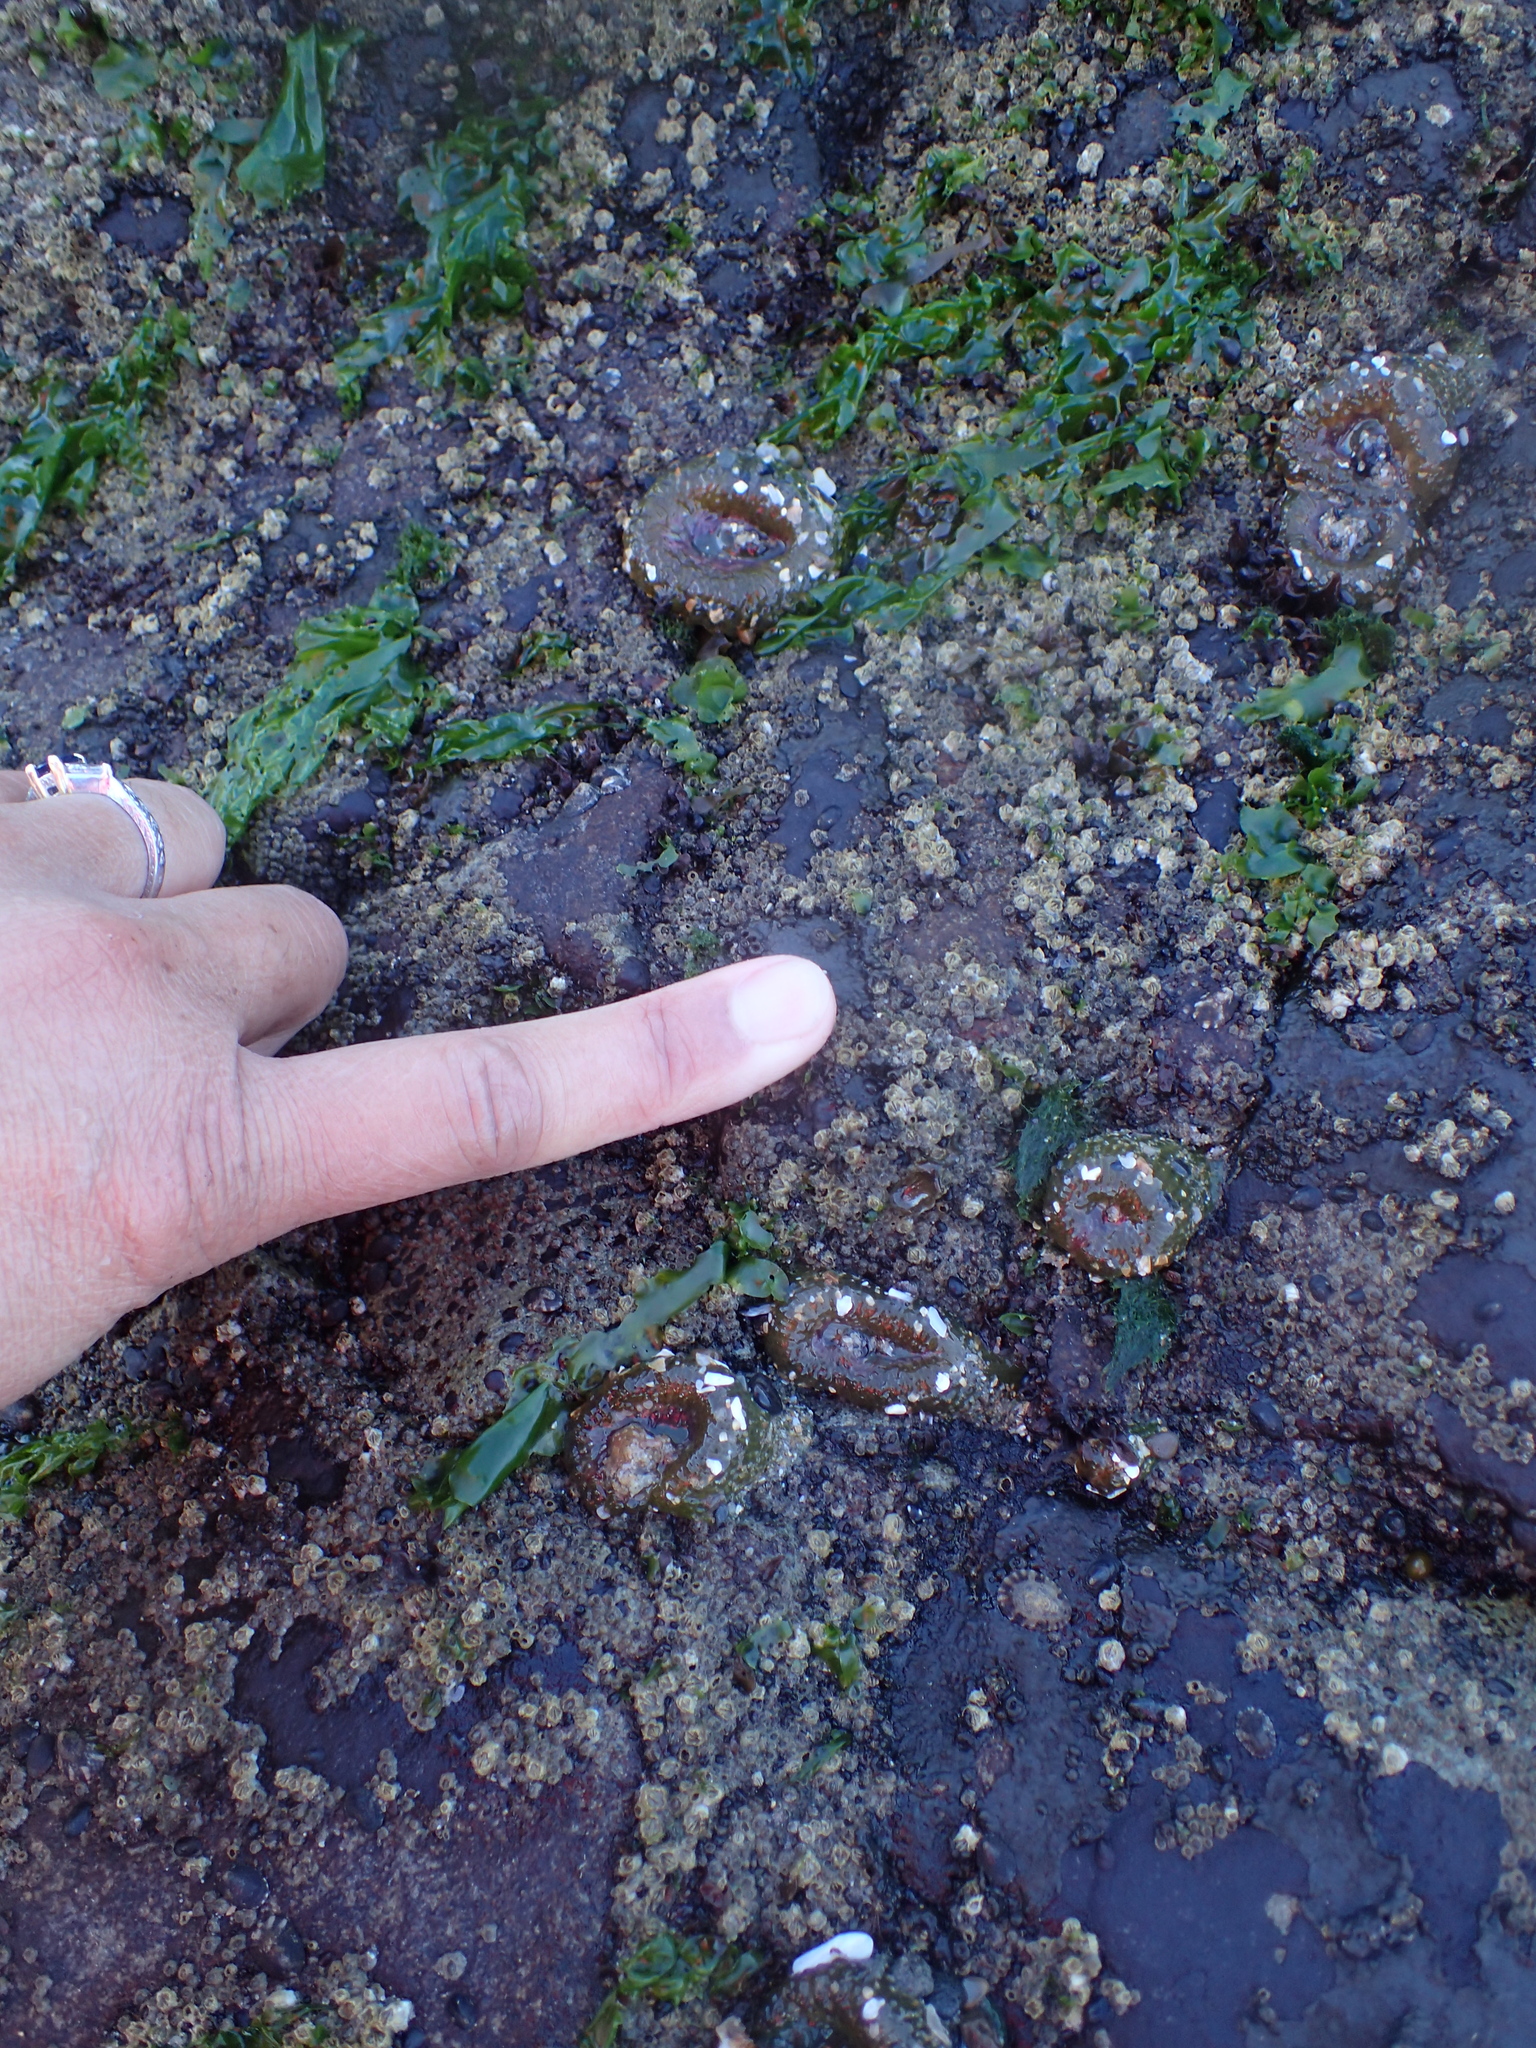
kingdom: Animalia
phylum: Cnidaria
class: Anthozoa
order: Actiniaria
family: Actiniidae
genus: Anthopleura
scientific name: Anthopleura elegantissima
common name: Clonal anemone
